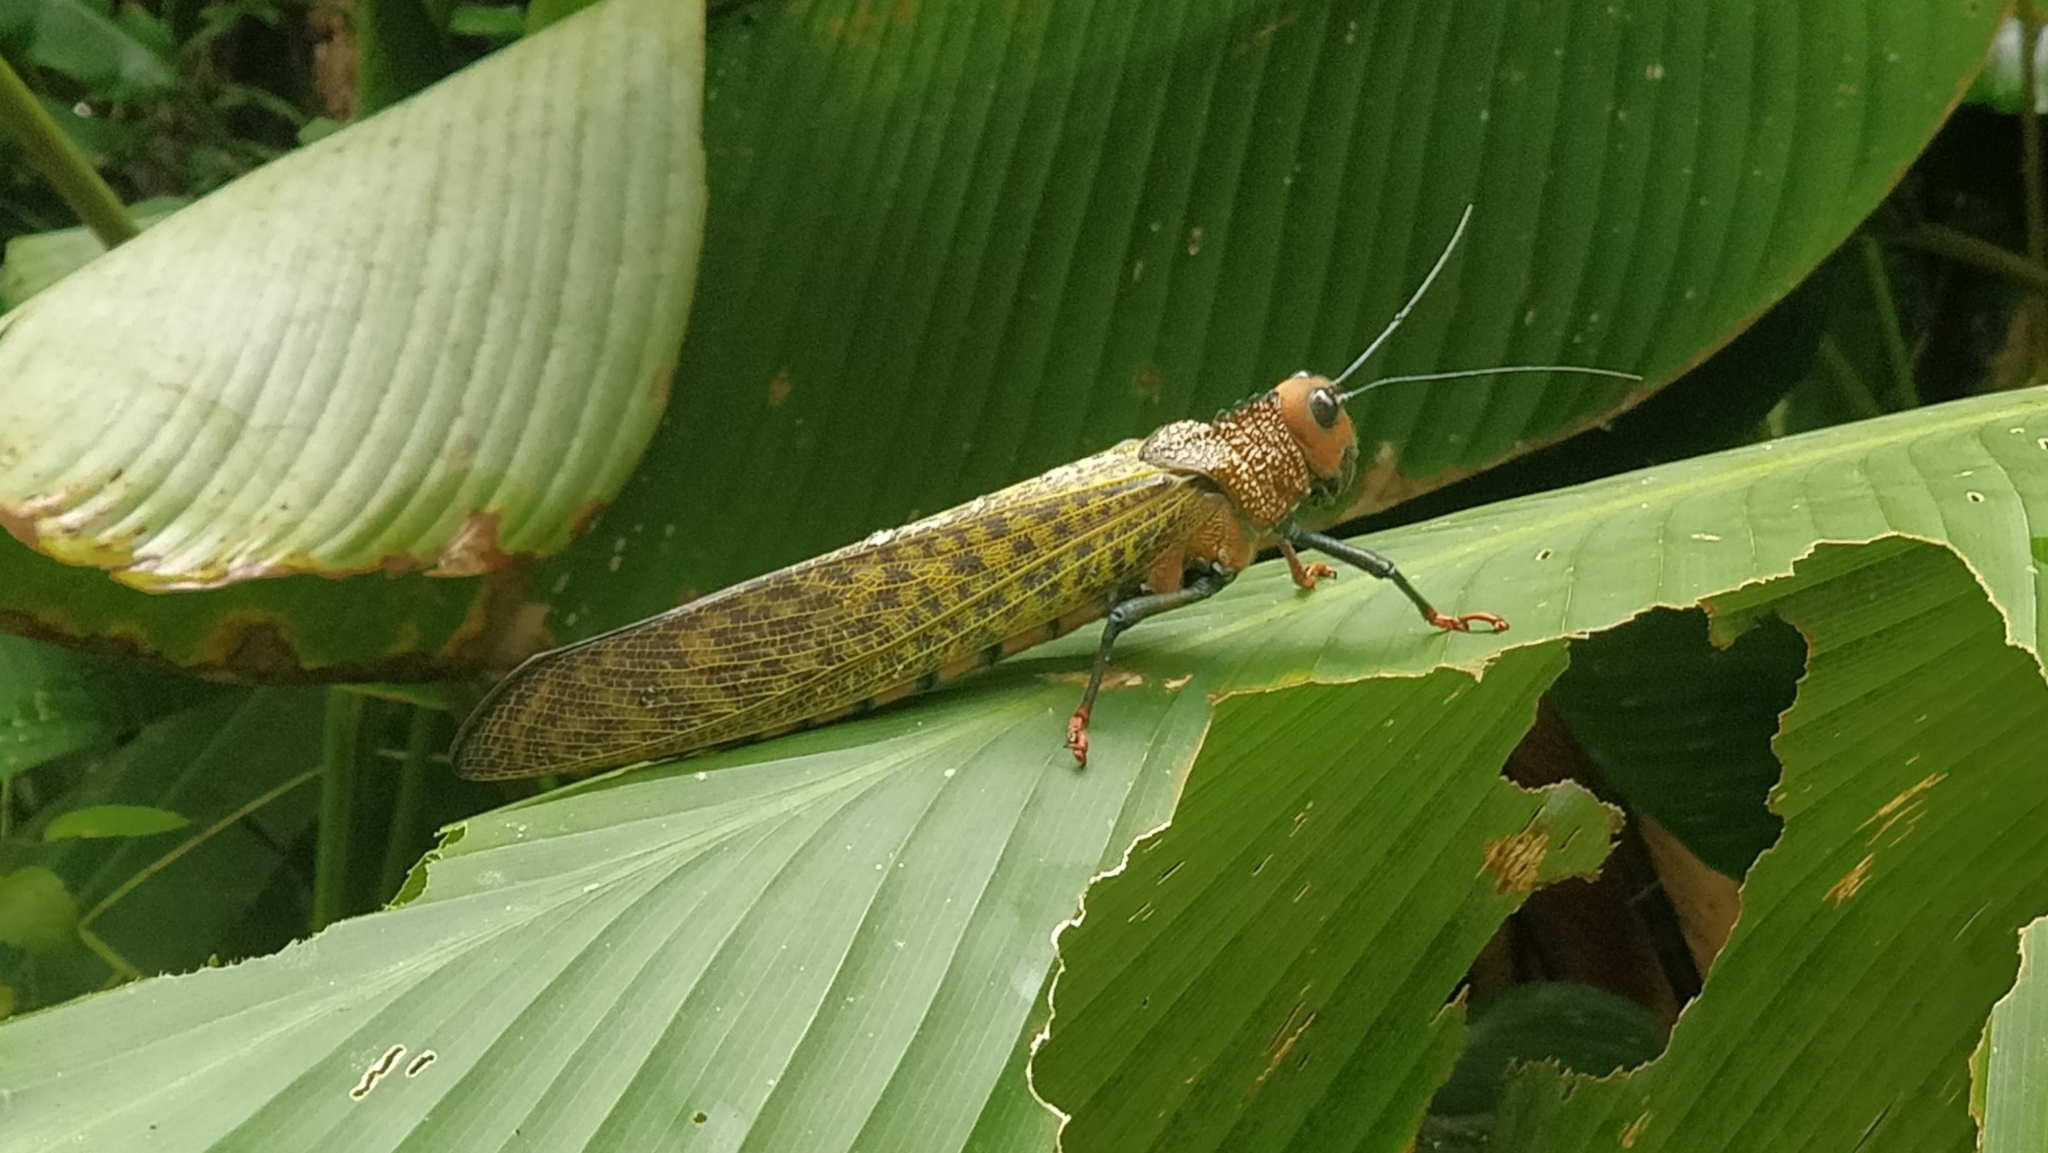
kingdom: Animalia
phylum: Arthropoda
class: Insecta
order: Orthoptera
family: Romaleidae
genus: Tropidacris
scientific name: Tropidacris cristata
